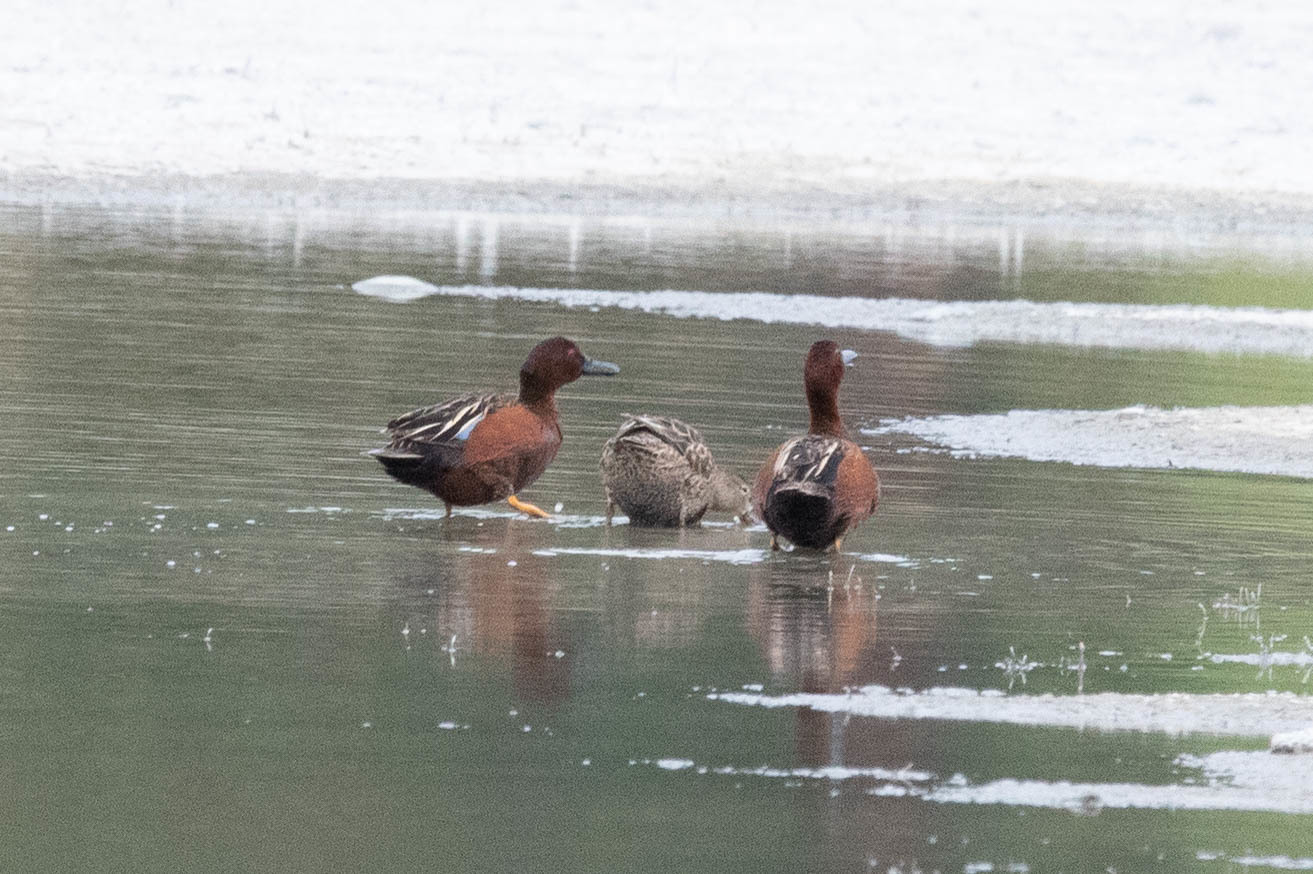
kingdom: Animalia
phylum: Chordata
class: Aves
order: Anseriformes
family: Anatidae
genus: Spatula
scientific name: Spatula cyanoptera
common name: Cinnamon teal
